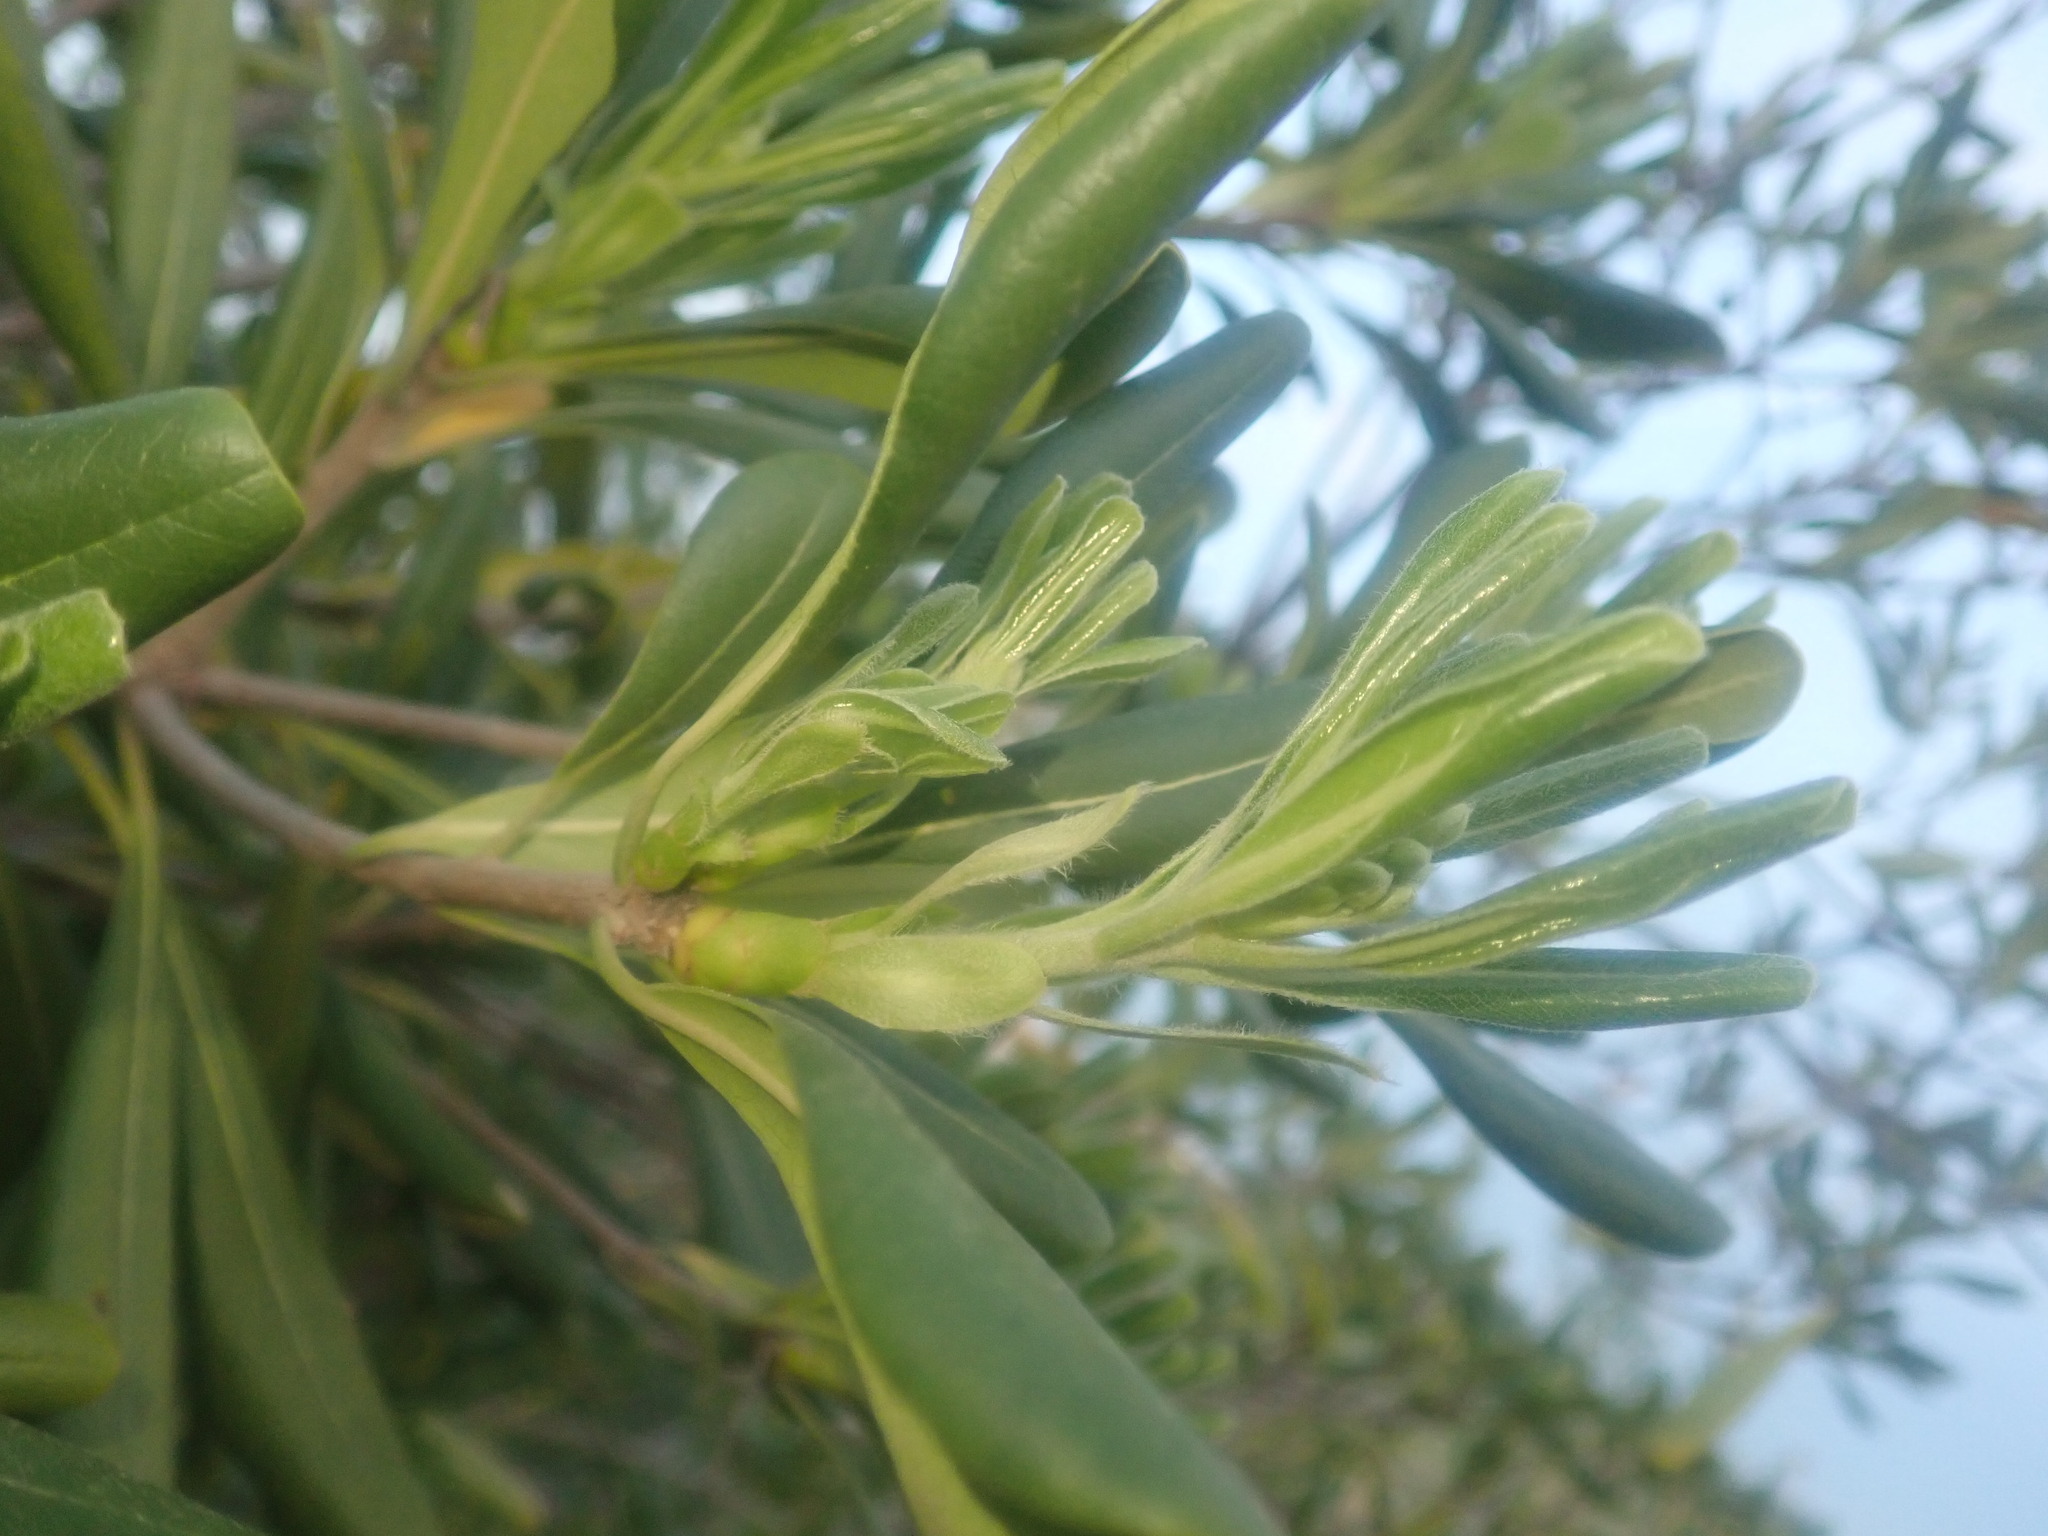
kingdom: Plantae
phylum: Tracheophyta
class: Magnoliopsida
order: Apiales
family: Pittosporaceae
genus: Pittosporum
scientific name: Pittosporum tobira
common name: Japanese cheesewood
